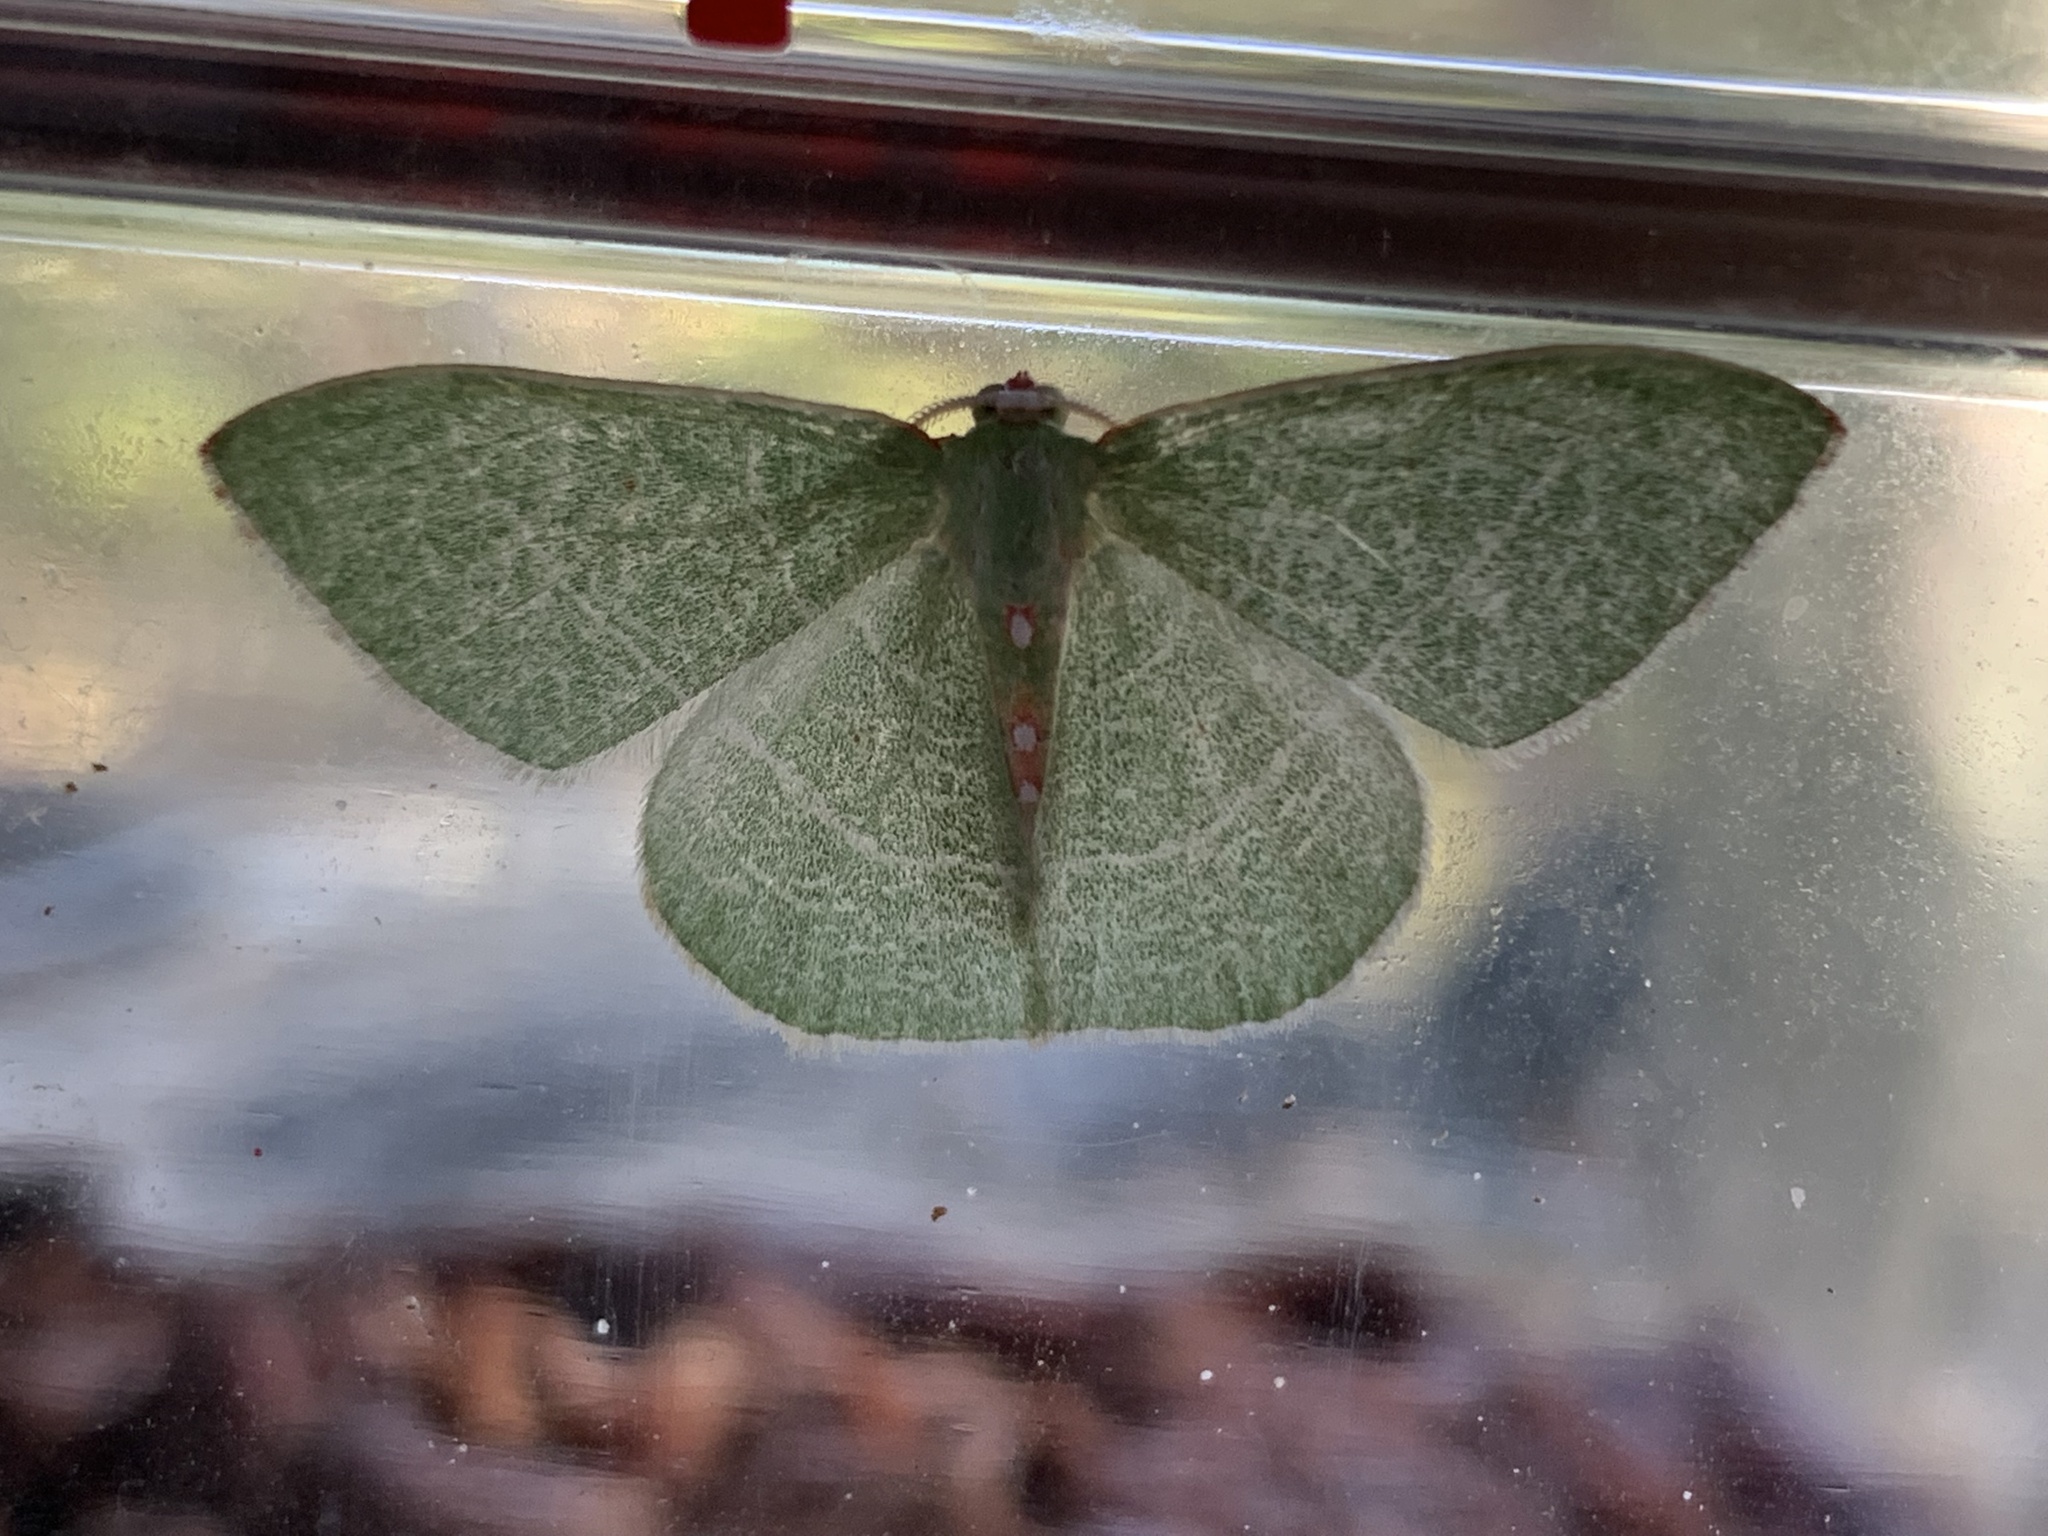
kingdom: Animalia
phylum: Arthropoda
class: Insecta
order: Lepidoptera
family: Geometridae
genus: Nemoria
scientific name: Nemoria darwiniata
